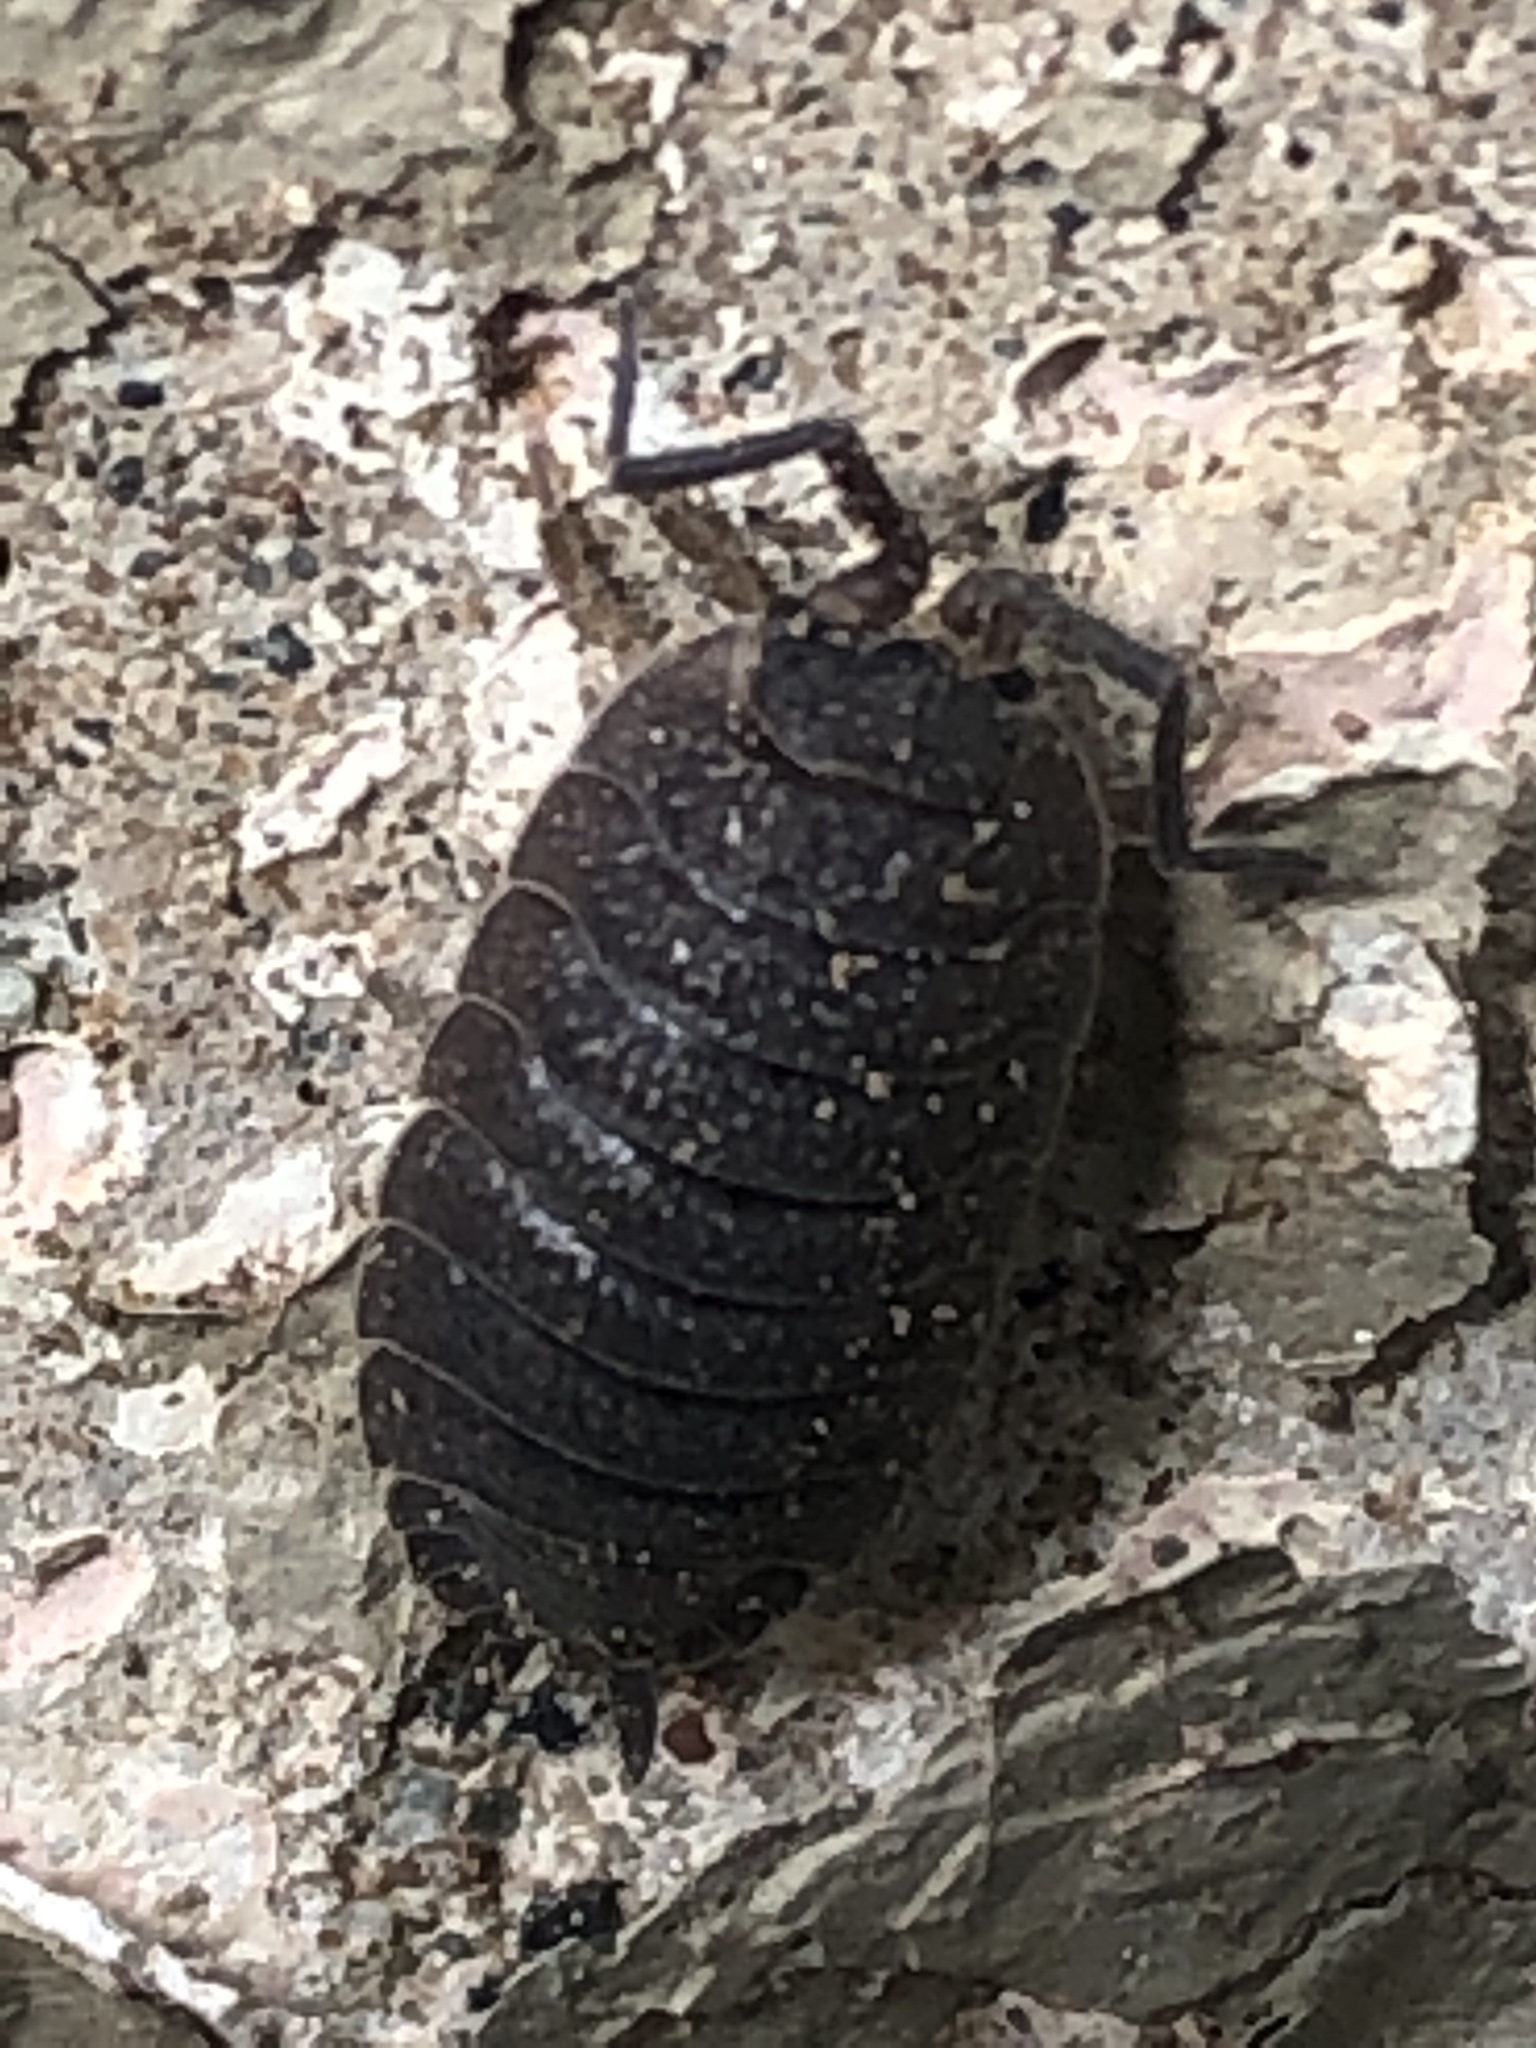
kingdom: Animalia
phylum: Arthropoda
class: Malacostraca
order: Isopoda
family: Porcellionidae
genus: Porcellio
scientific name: Porcellio scaber
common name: Common rough woodlouse
